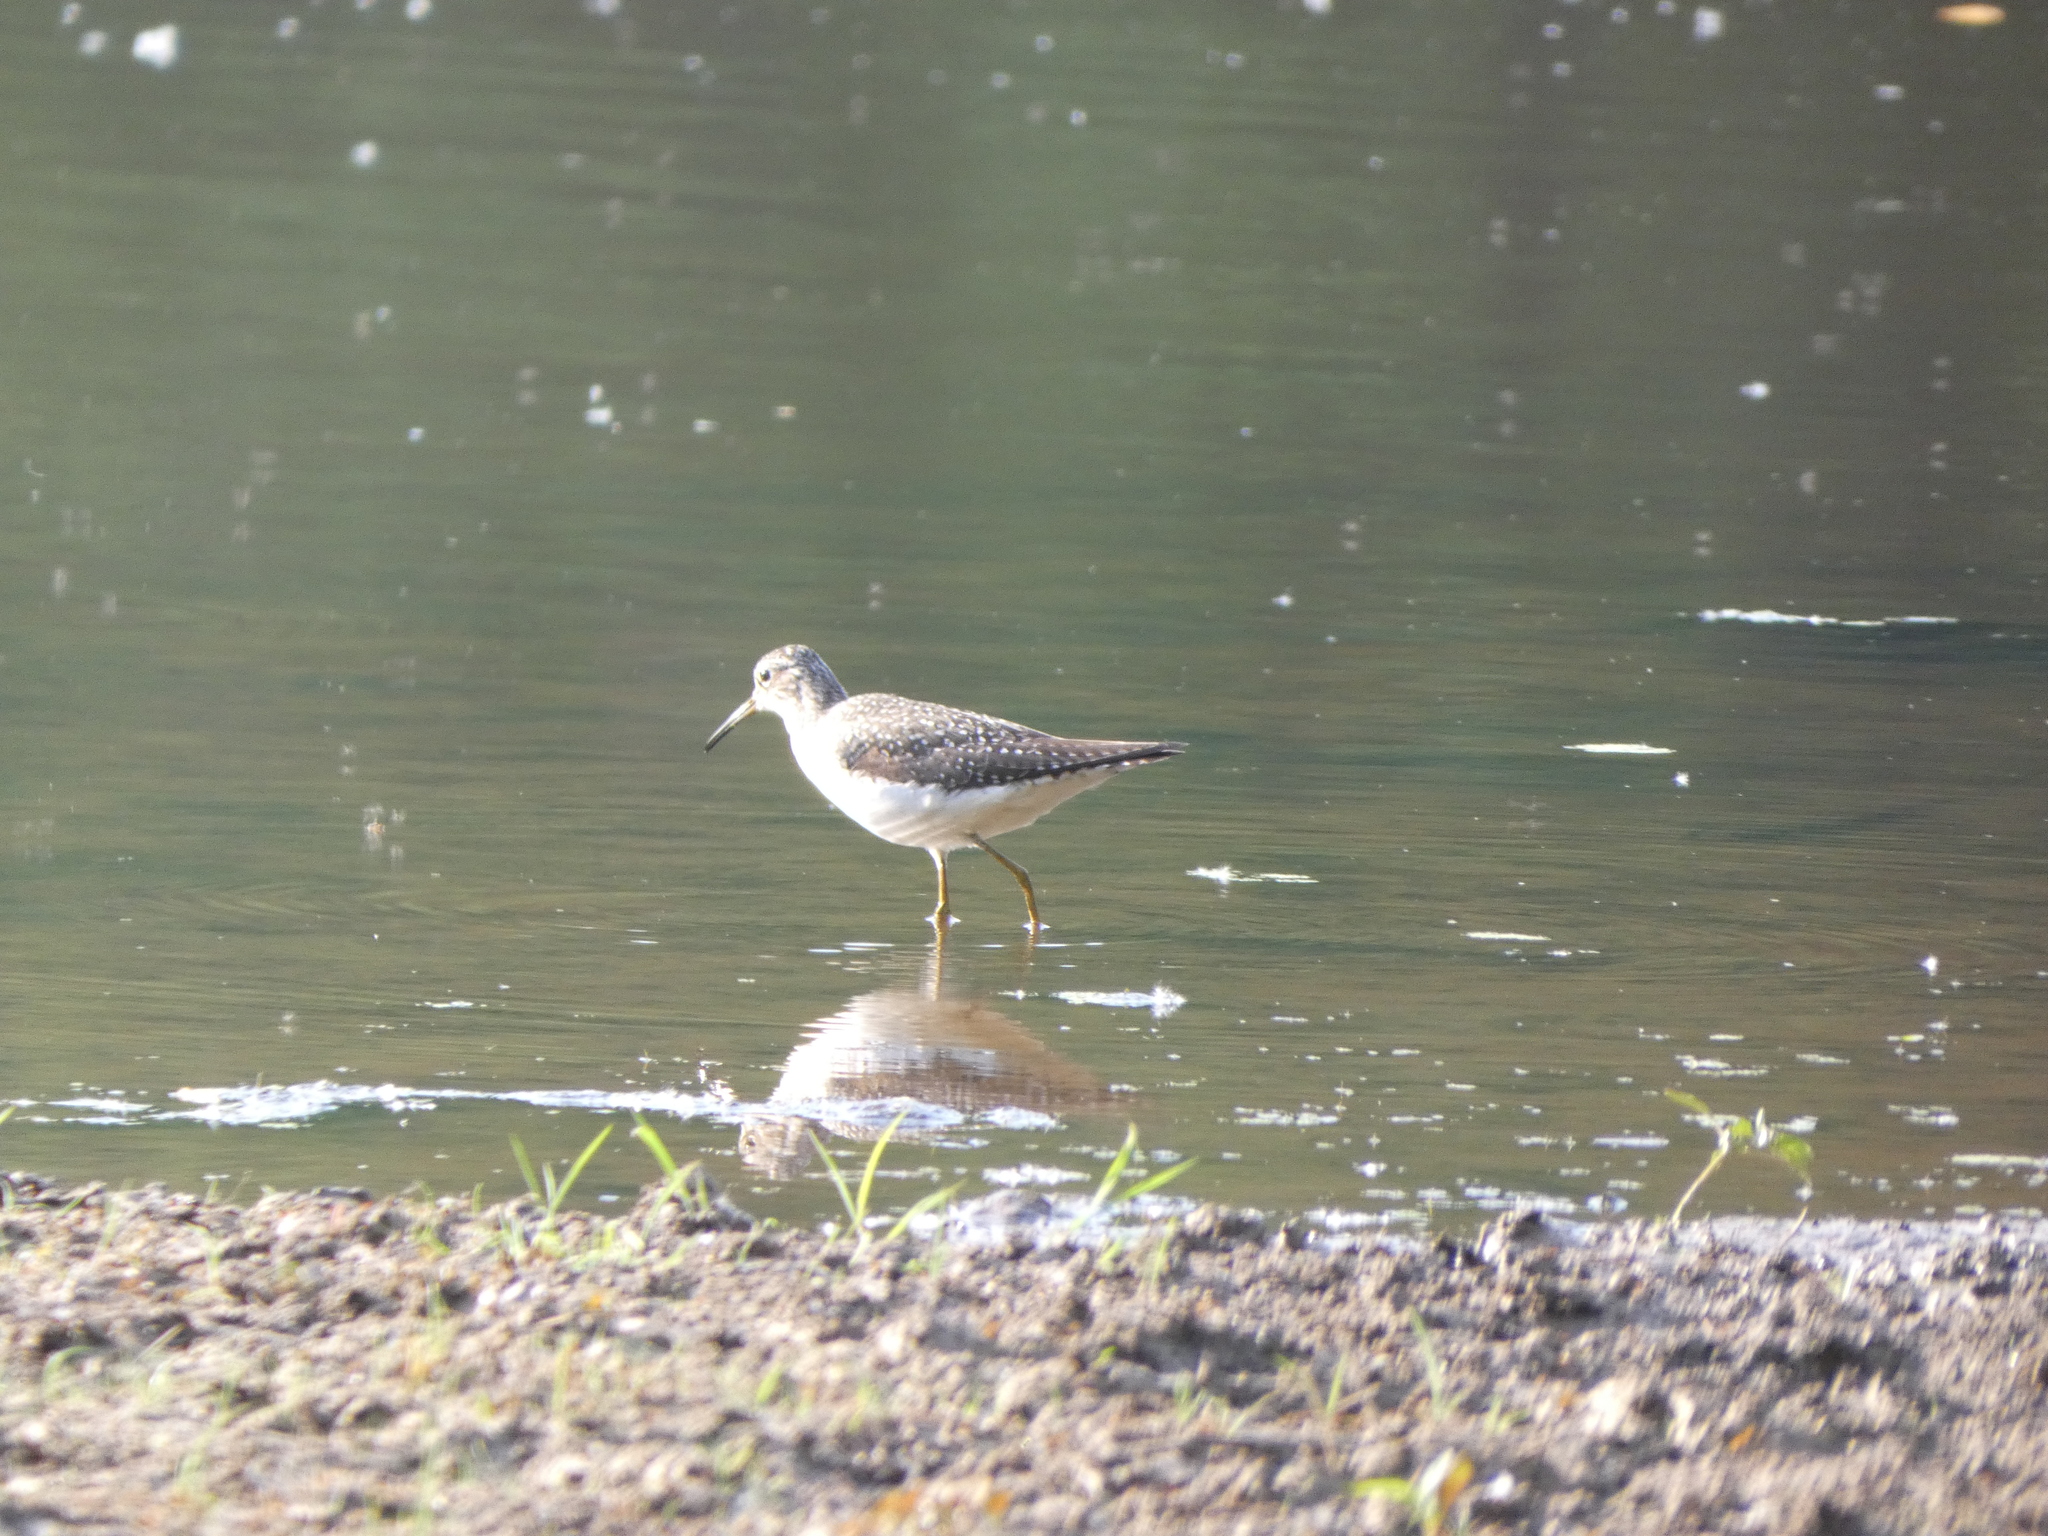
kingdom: Animalia
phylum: Chordata
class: Aves
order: Charadriiformes
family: Scolopacidae
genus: Tringa
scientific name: Tringa solitaria
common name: Solitary sandpiper
